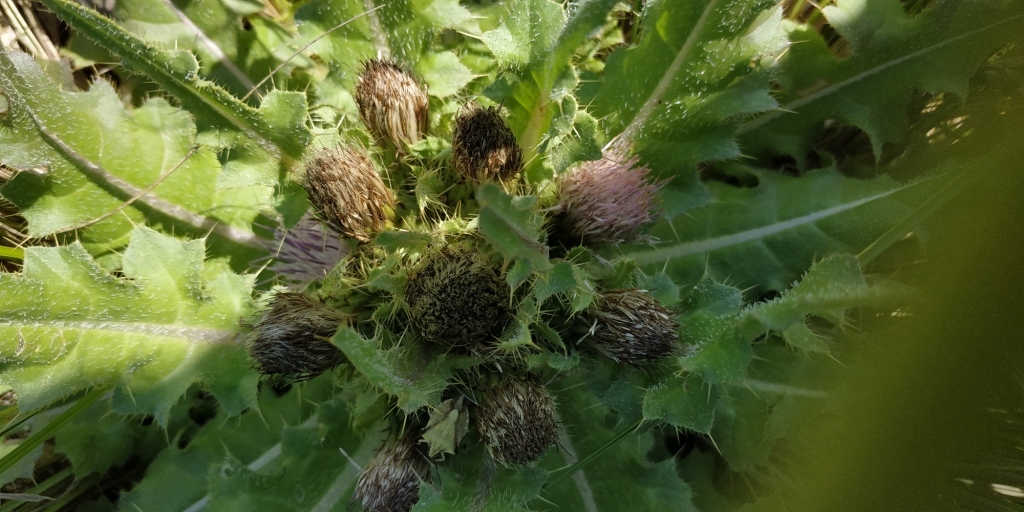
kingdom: Plantae
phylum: Tracheophyta
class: Magnoliopsida
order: Asterales
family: Asteraceae
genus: Cirsium
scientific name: Cirsium esculentum
